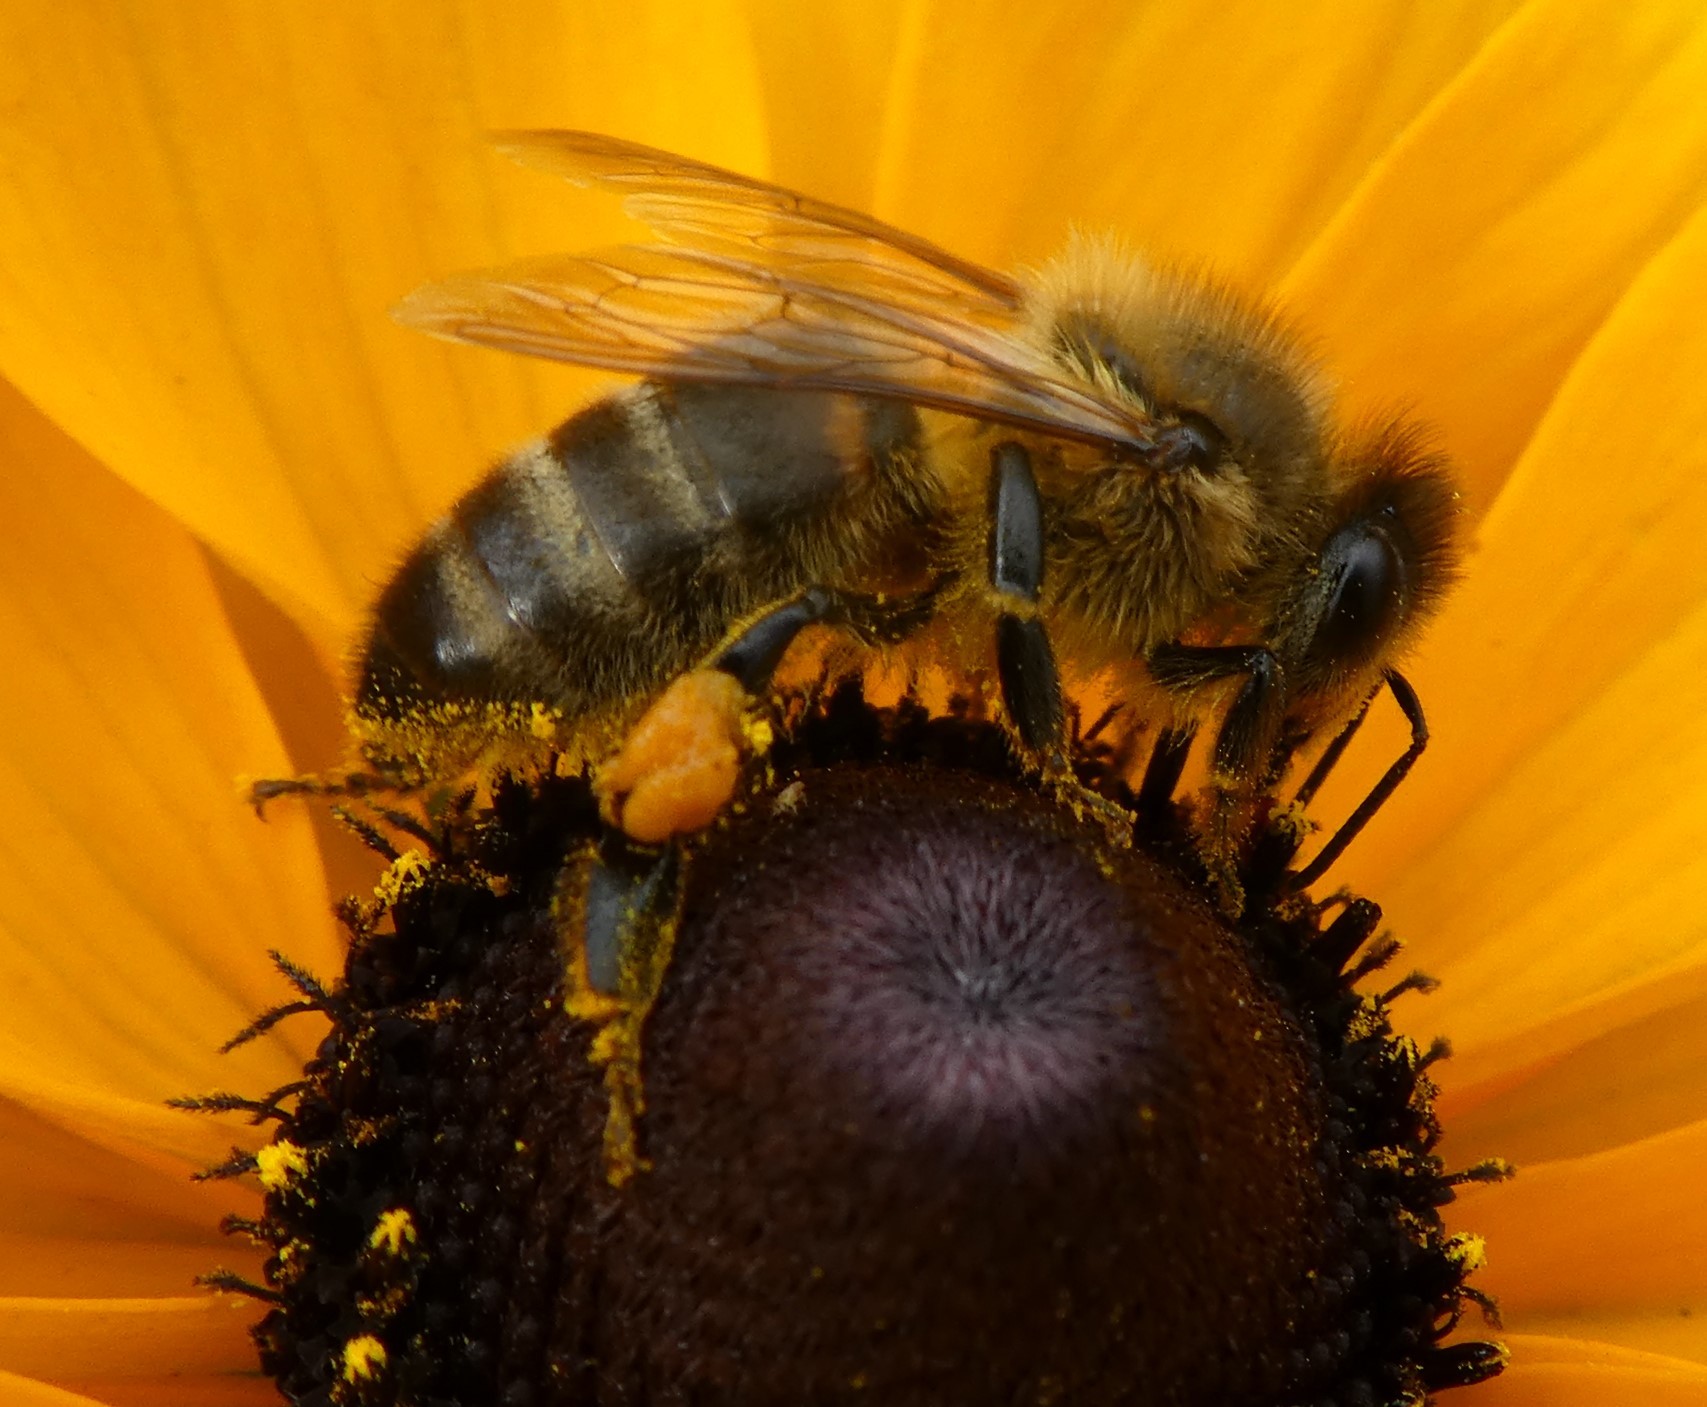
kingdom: Animalia
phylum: Arthropoda
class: Insecta
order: Hymenoptera
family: Apidae
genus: Apis
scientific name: Apis mellifera
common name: Honey bee
